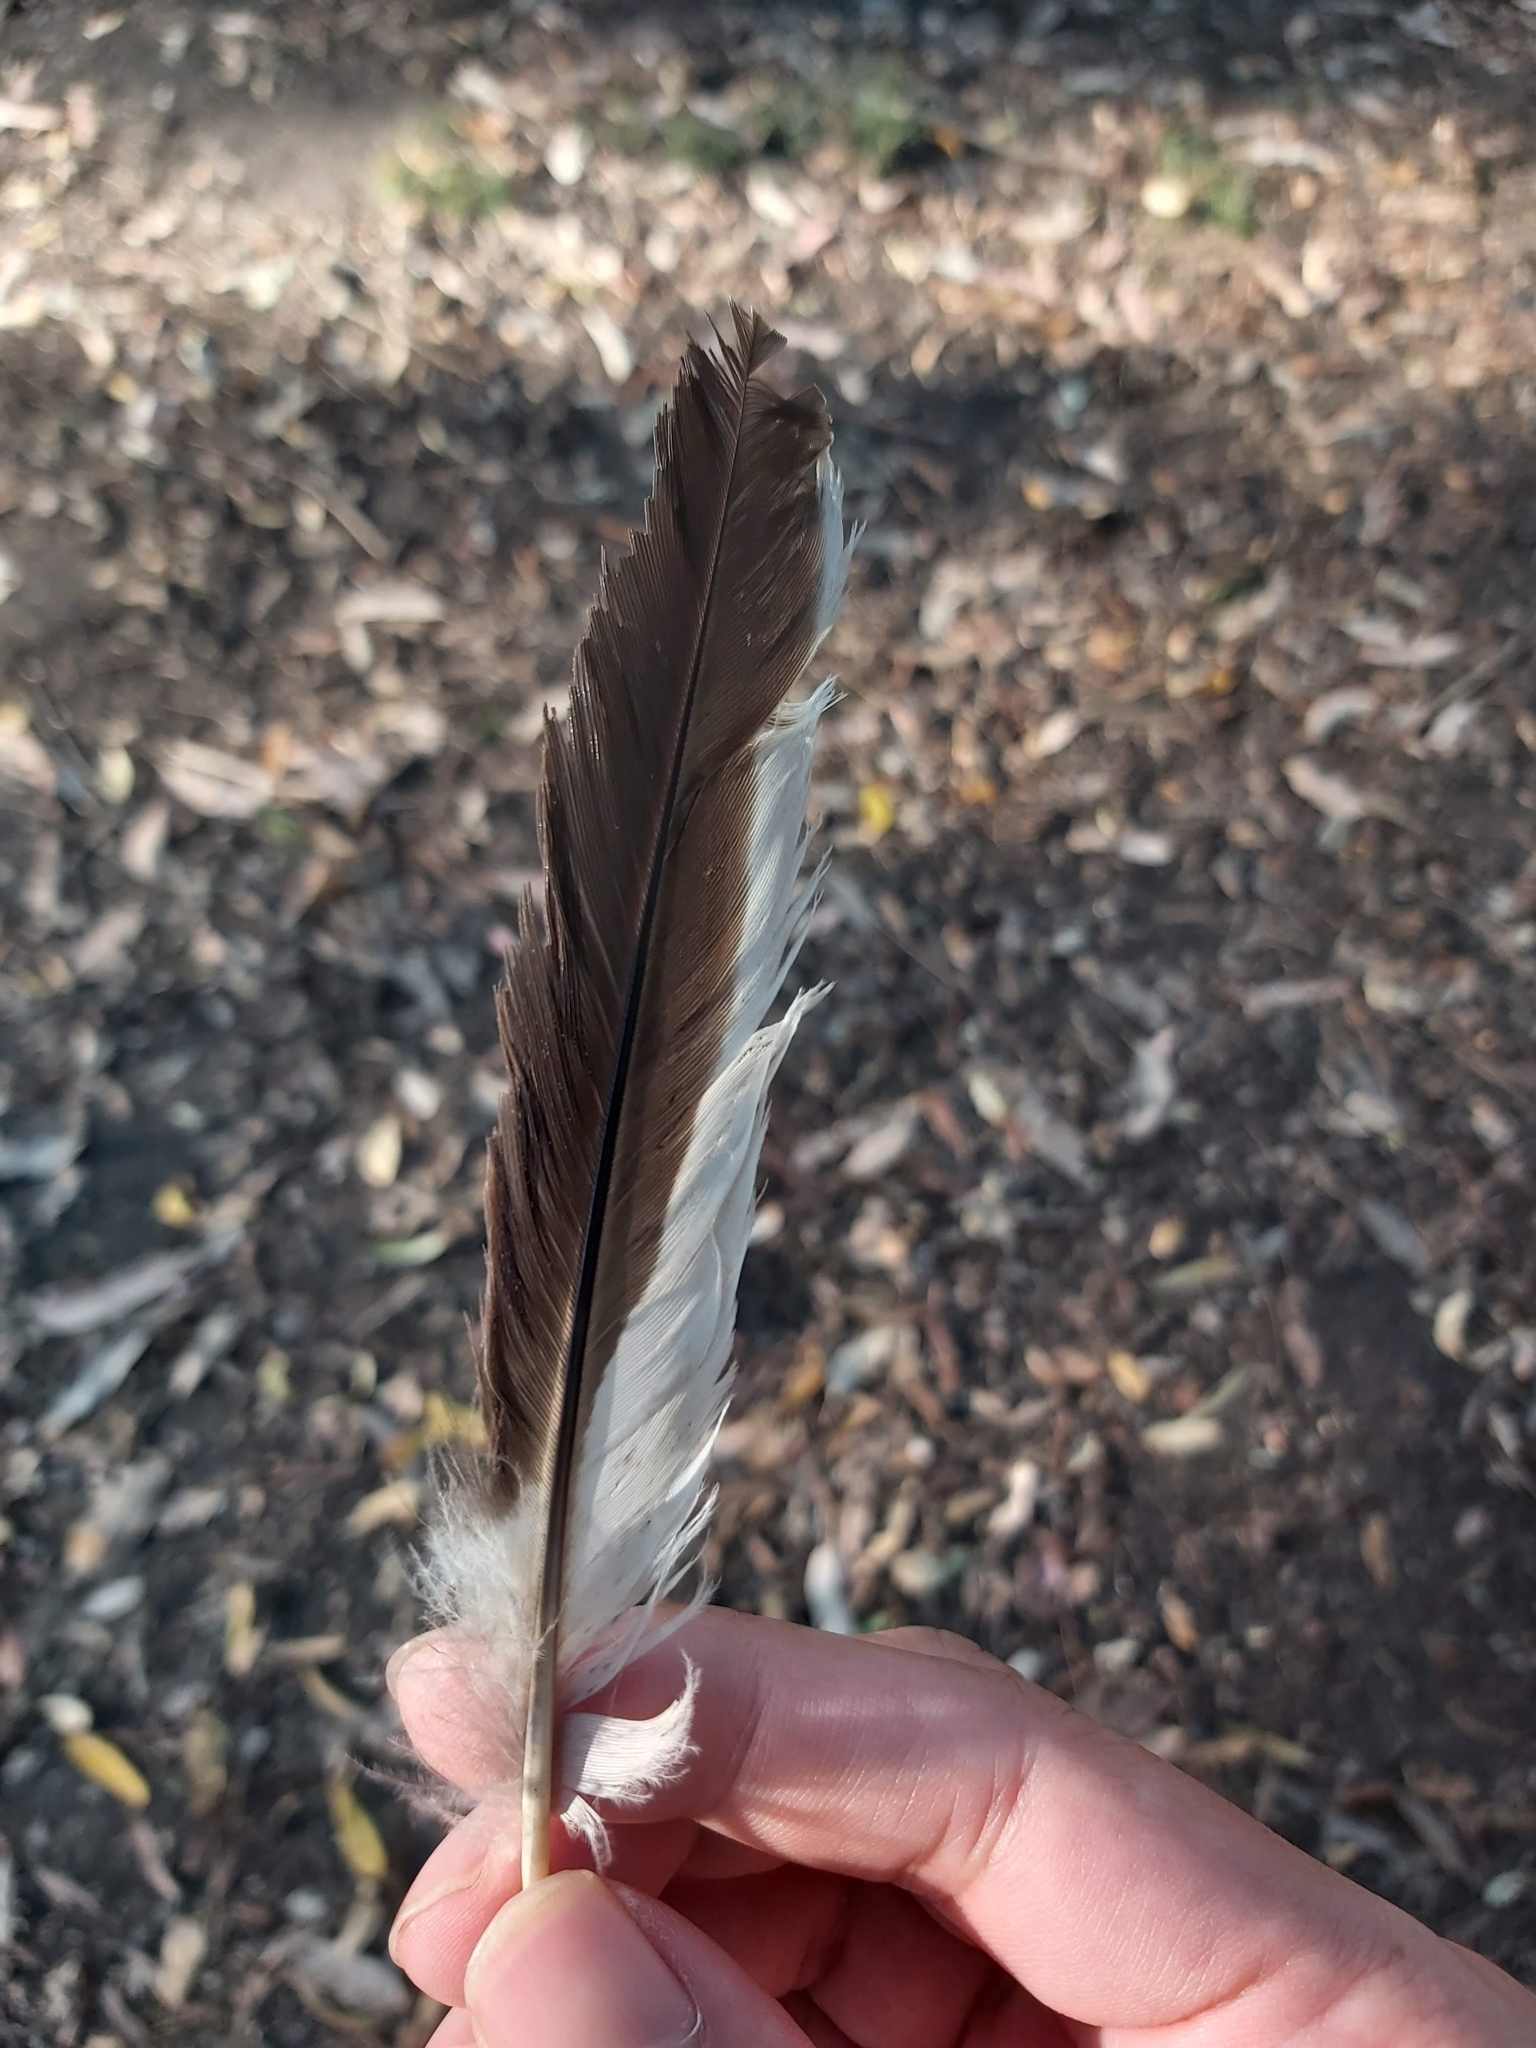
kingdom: Animalia
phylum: Chordata
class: Aves
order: Coraciiformes
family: Alcedinidae
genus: Dacelo
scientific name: Dacelo novaeguineae
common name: Laughing kookaburra
